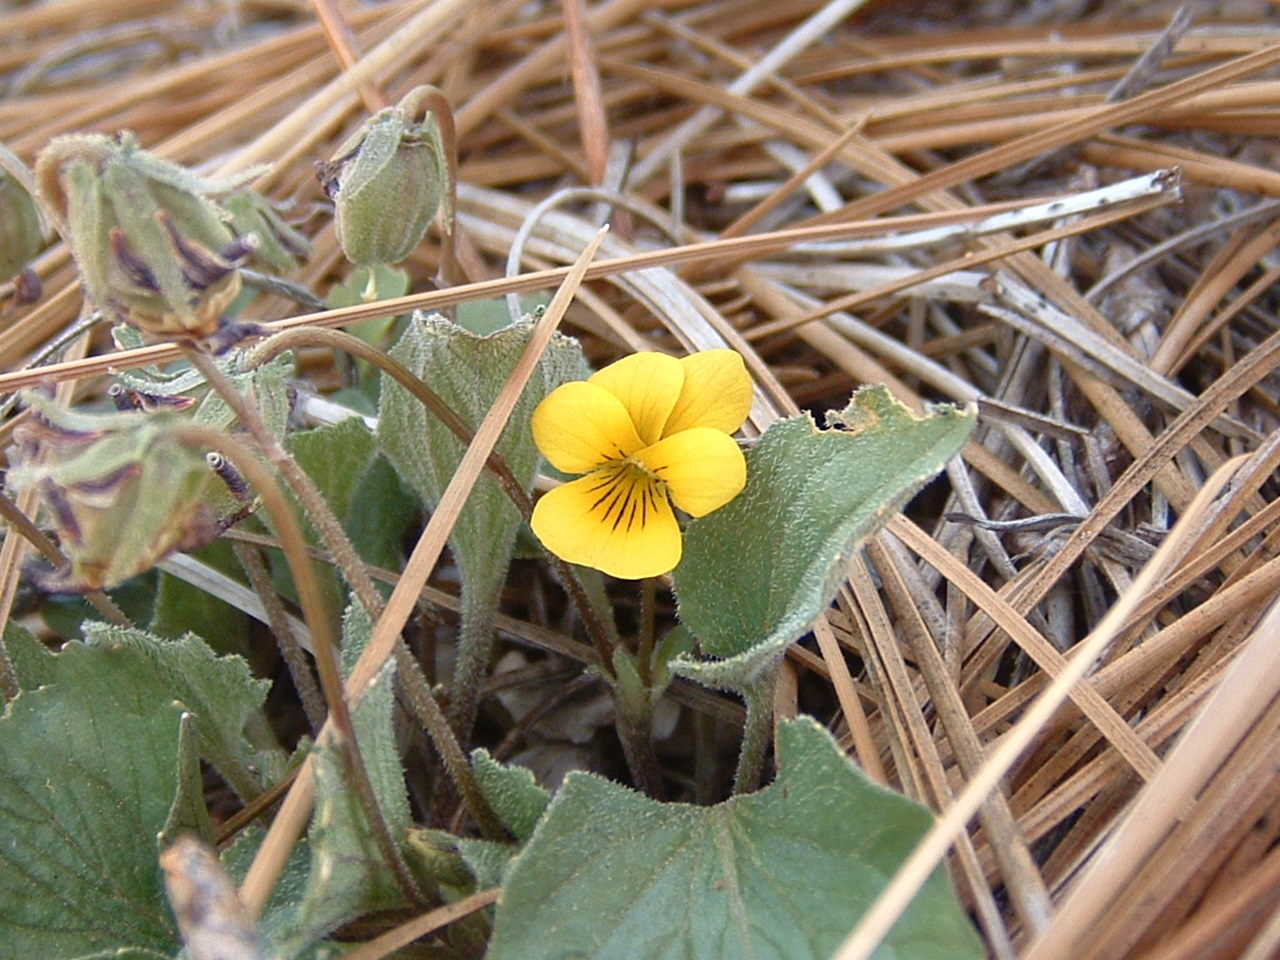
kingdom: Plantae
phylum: Tracheophyta
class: Magnoliopsida
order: Malpighiales
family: Violaceae
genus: Viola
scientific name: Viola purpurea
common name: Pine violet
